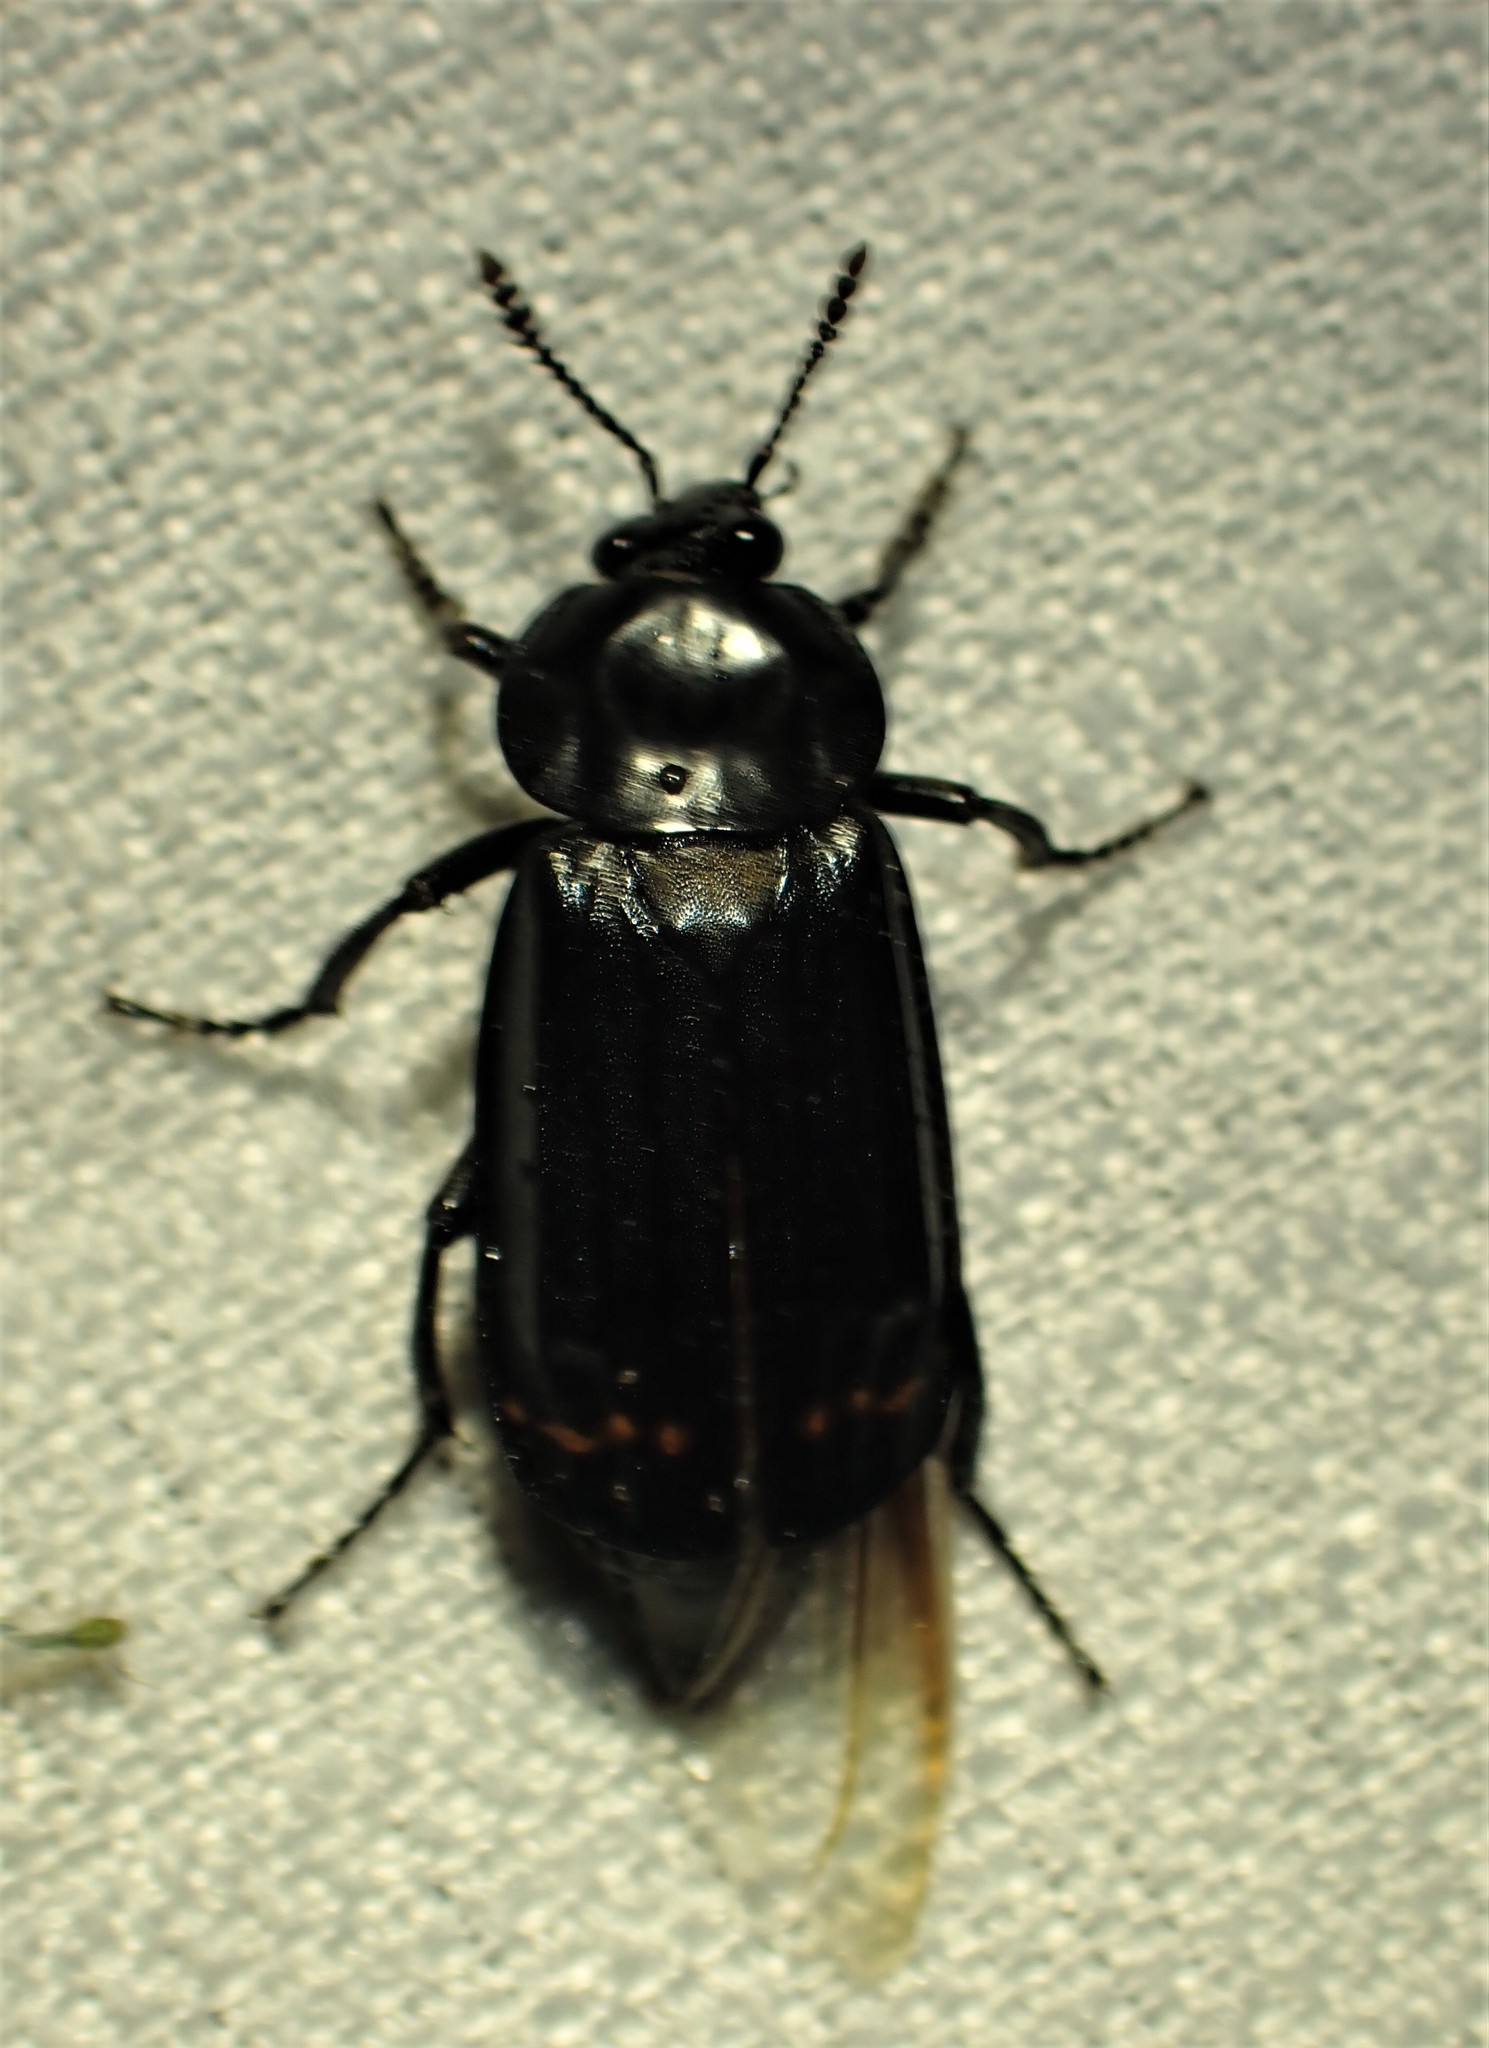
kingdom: Animalia
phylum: Arthropoda
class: Insecta
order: Coleoptera
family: Staphylinidae
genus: Necrodes
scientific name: Necrodes surinamensis
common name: Red-lined carrion beetle
